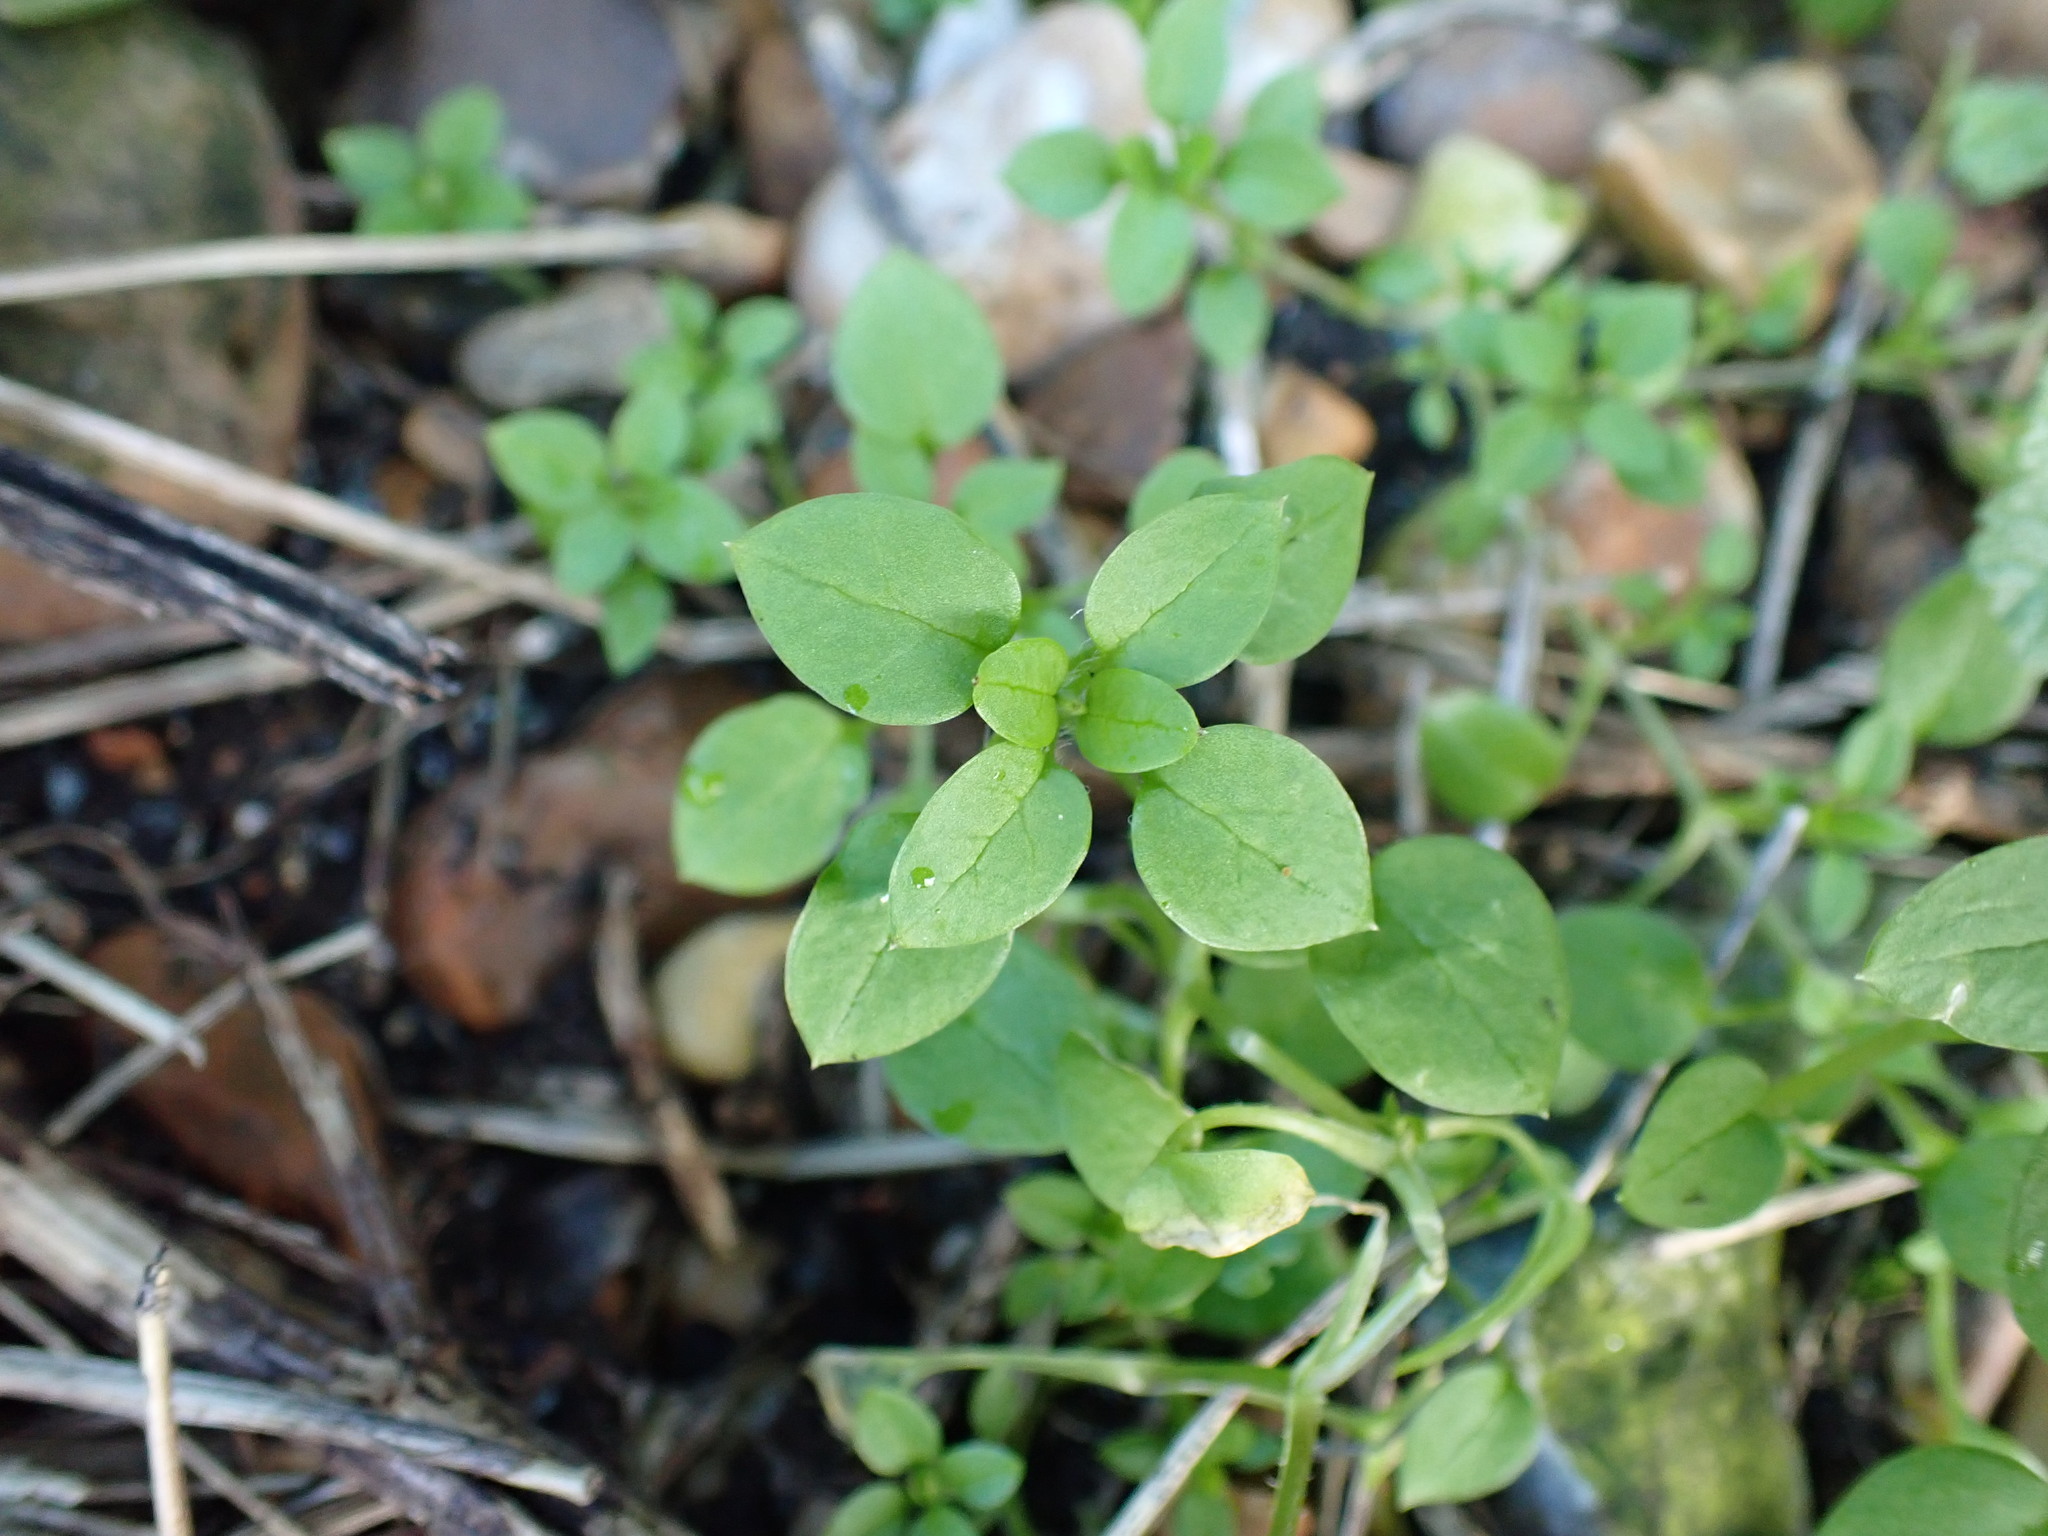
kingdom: Plantae
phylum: Tracheophyta
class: Magnoliopsida
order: Caryophyllales
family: Caryophyllaceae
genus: Stellaria
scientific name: Stellaria media
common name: Common chickweed
